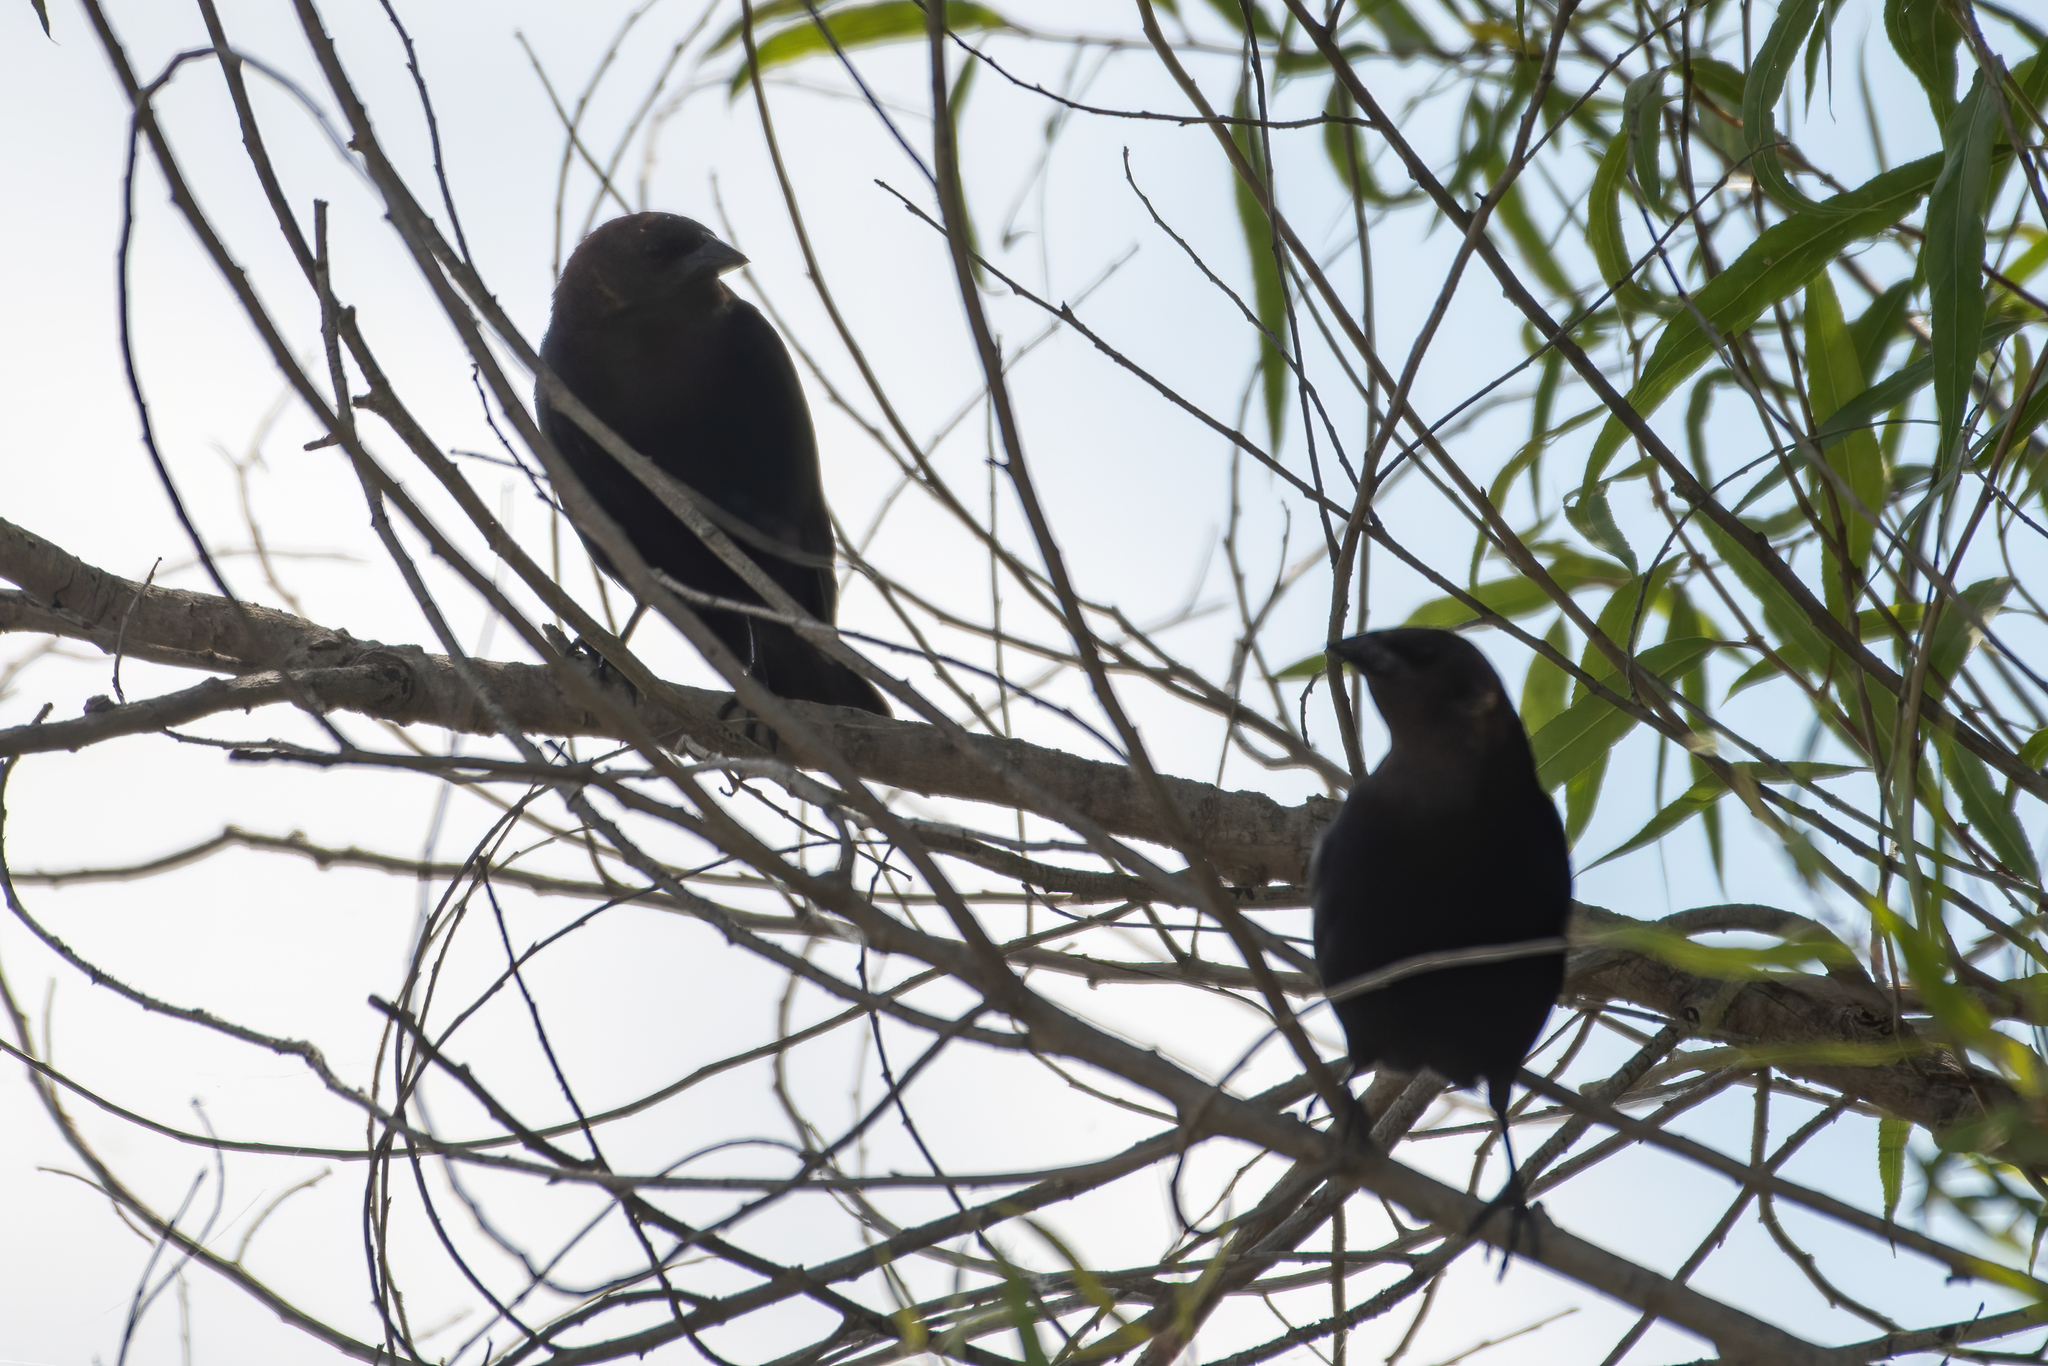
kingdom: Animalia
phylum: Chordata
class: Aves
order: Passeriformes
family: Icteridae
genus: Molothrus
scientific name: Molothrus ater
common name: Brown-headed cowbird
